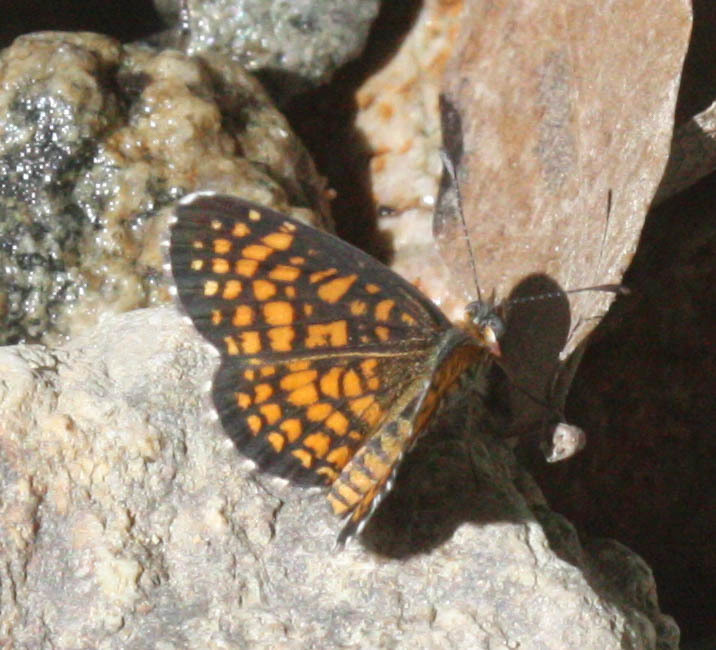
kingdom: Animalia
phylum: Arthropoda
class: Insecta
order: Lepidoptera
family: Nymphalidae
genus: Texola
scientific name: Texola
